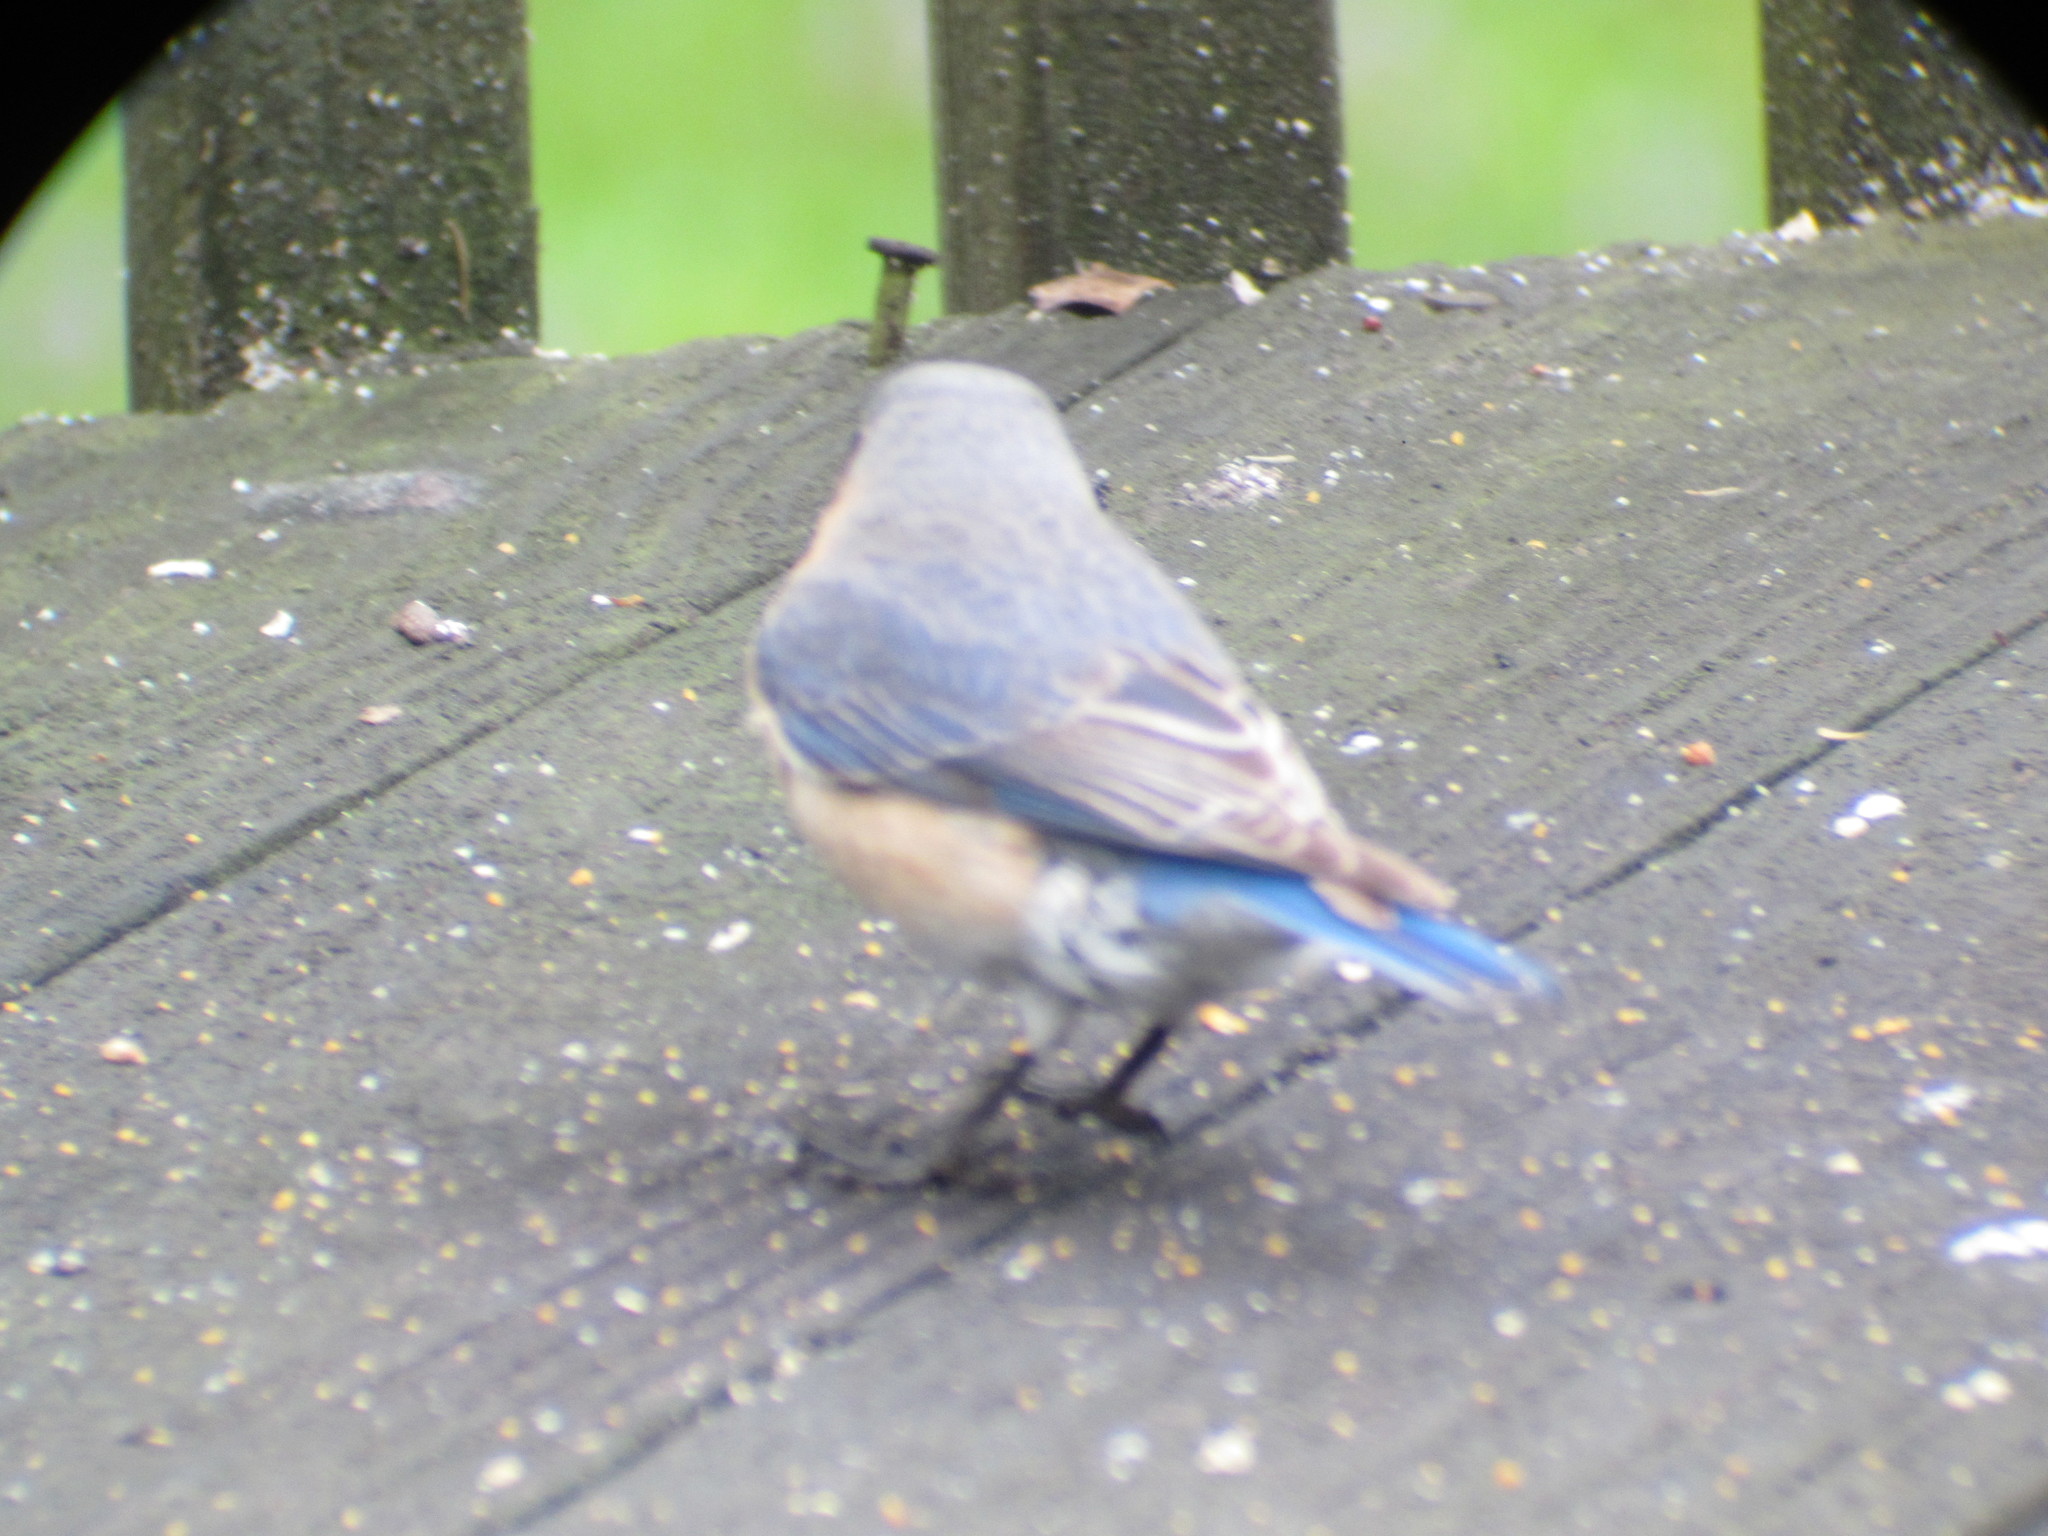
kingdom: Animalia
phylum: Chordata
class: Aves
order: Passeriformes
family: Turdidae
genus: Sialia
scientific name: Sialia sialis
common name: Eastern bluebird
